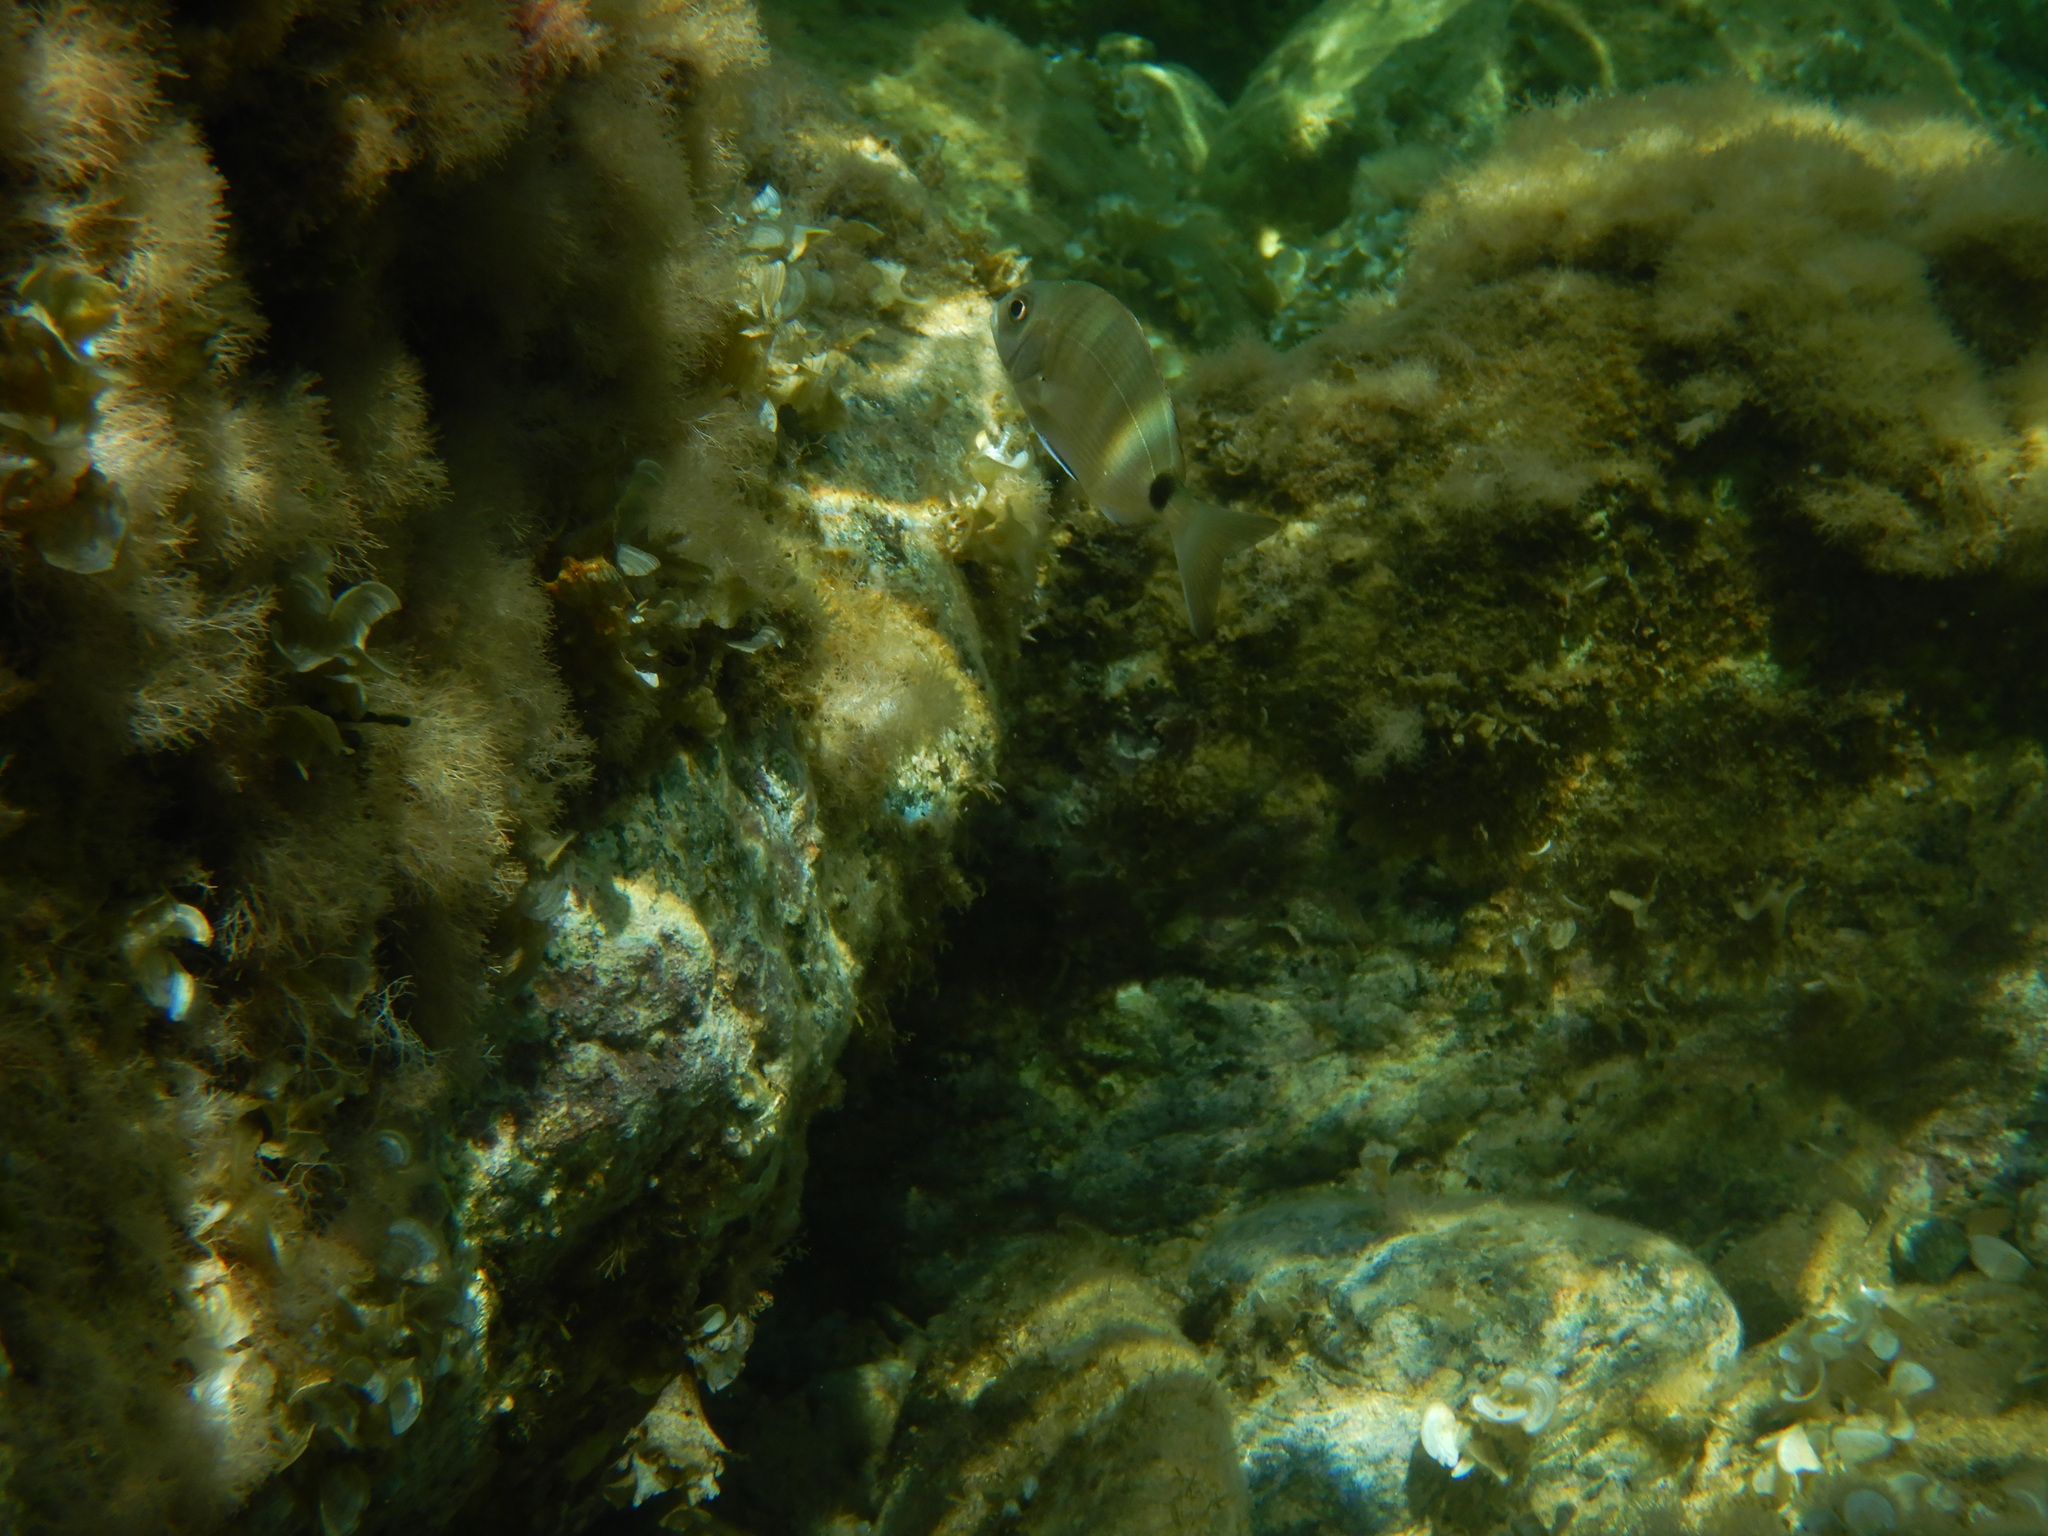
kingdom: Animalia
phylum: Chordata
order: Perciformes
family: Sparidae
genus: Diplodus
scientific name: Diplodus sargus
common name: White seabream
